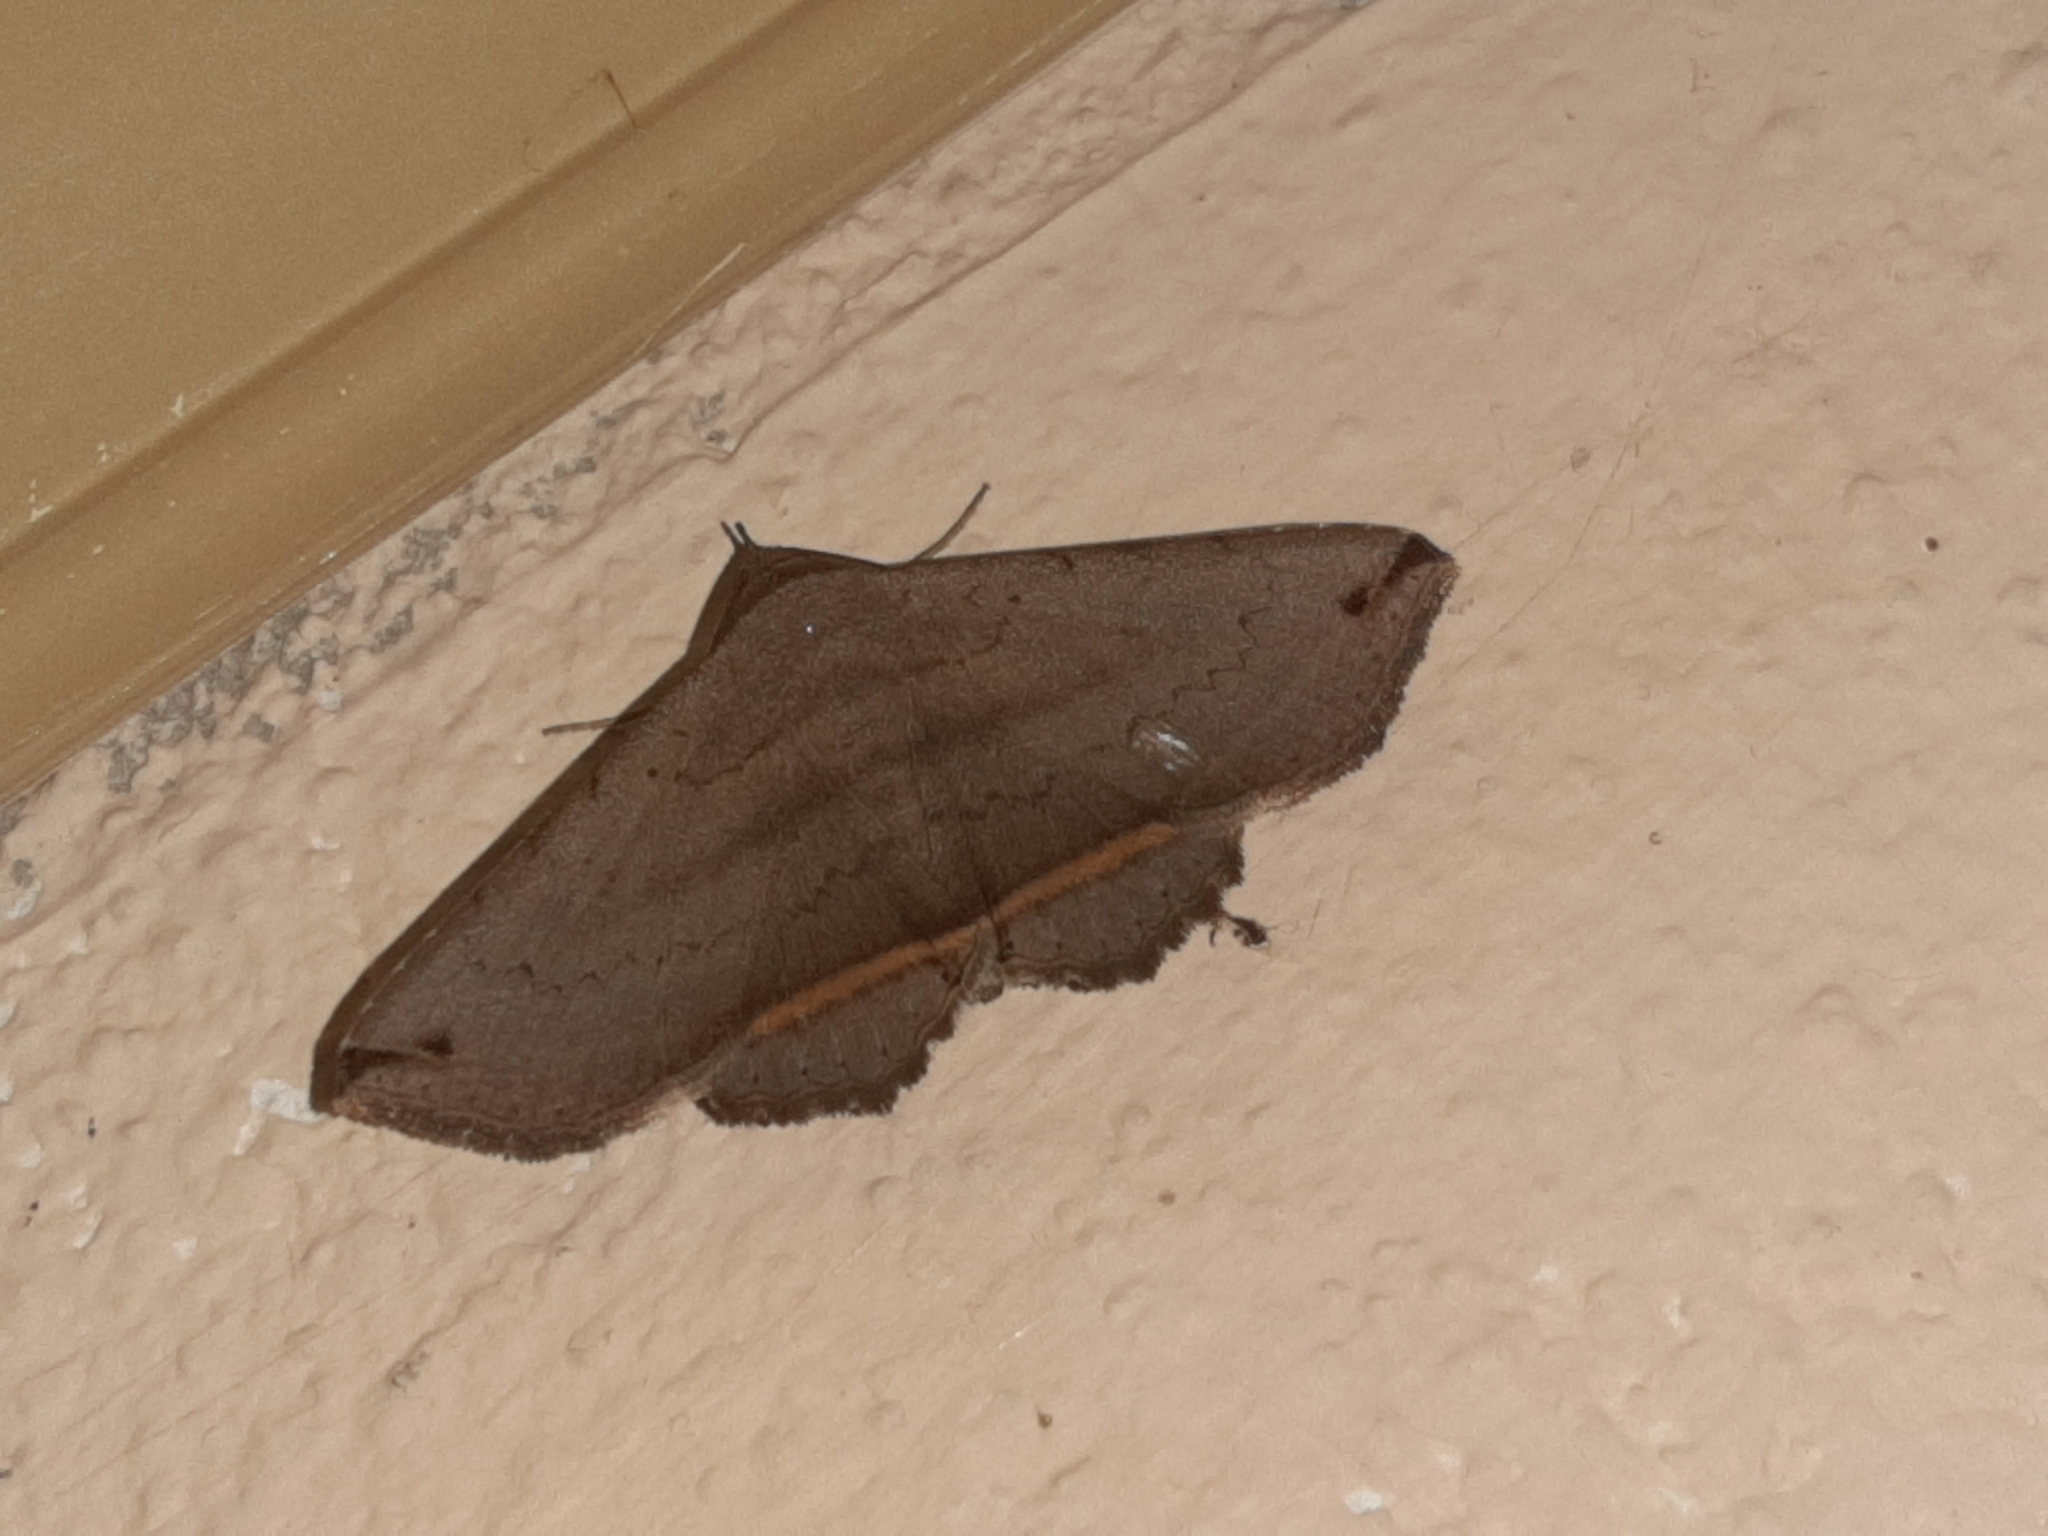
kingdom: Animalia
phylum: Arthropoda
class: Insecta
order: Lepidoptera
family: Erebidae
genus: Lesmone
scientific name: Lesmone formularis
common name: Lesmone moth
